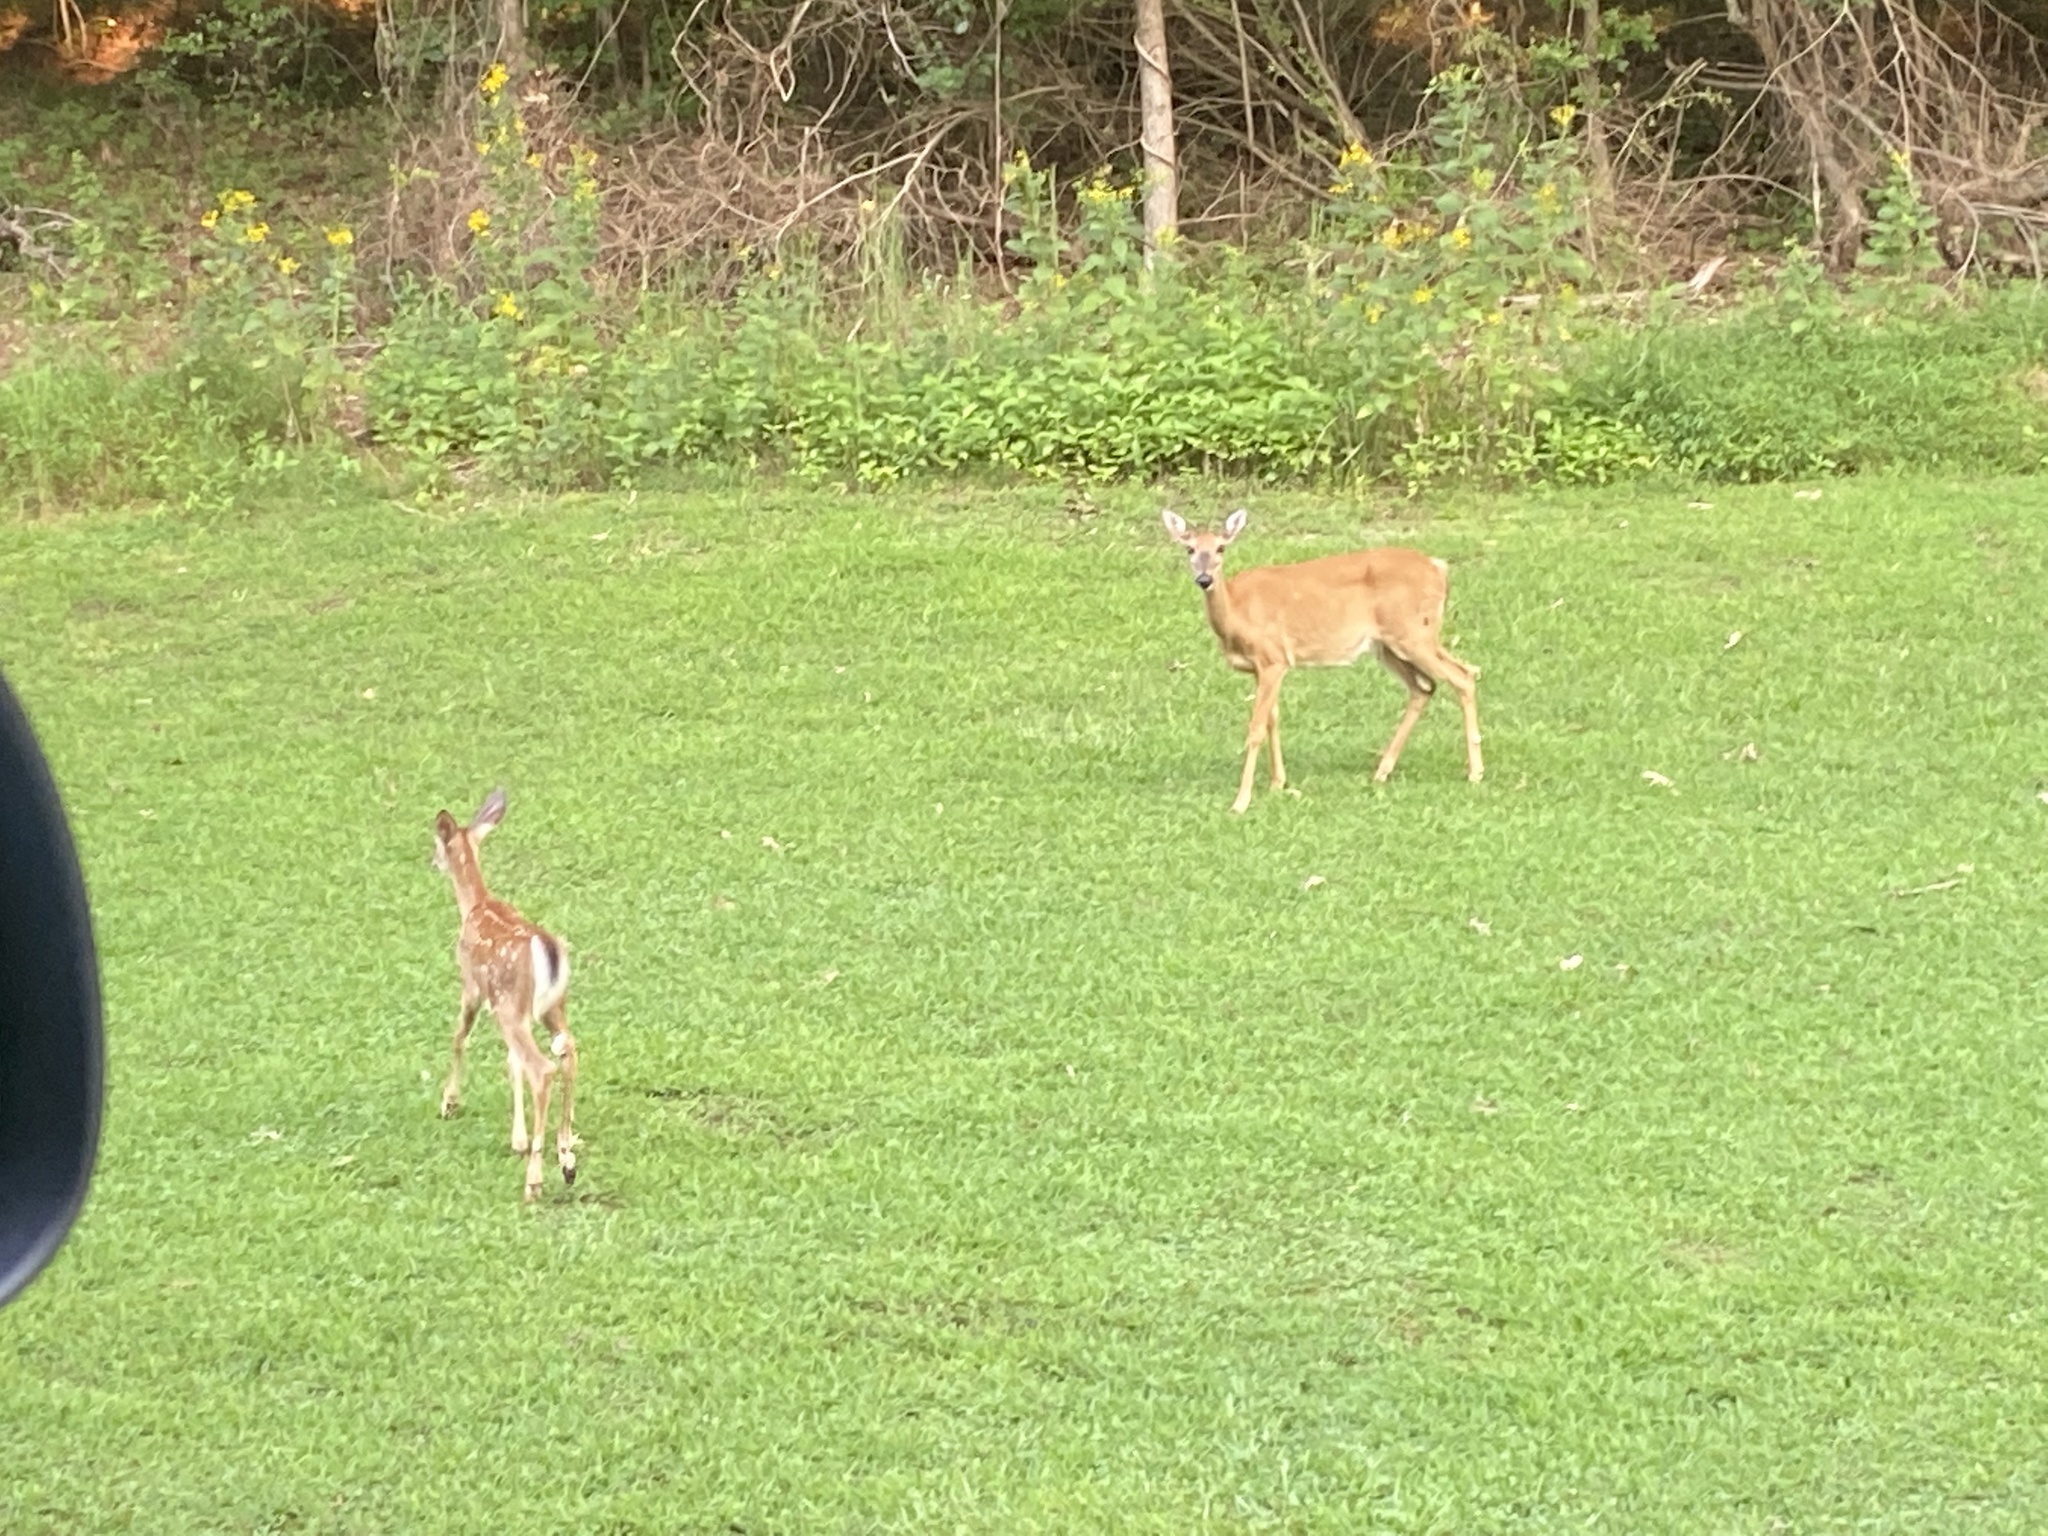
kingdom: Animalia
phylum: Chordata
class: Mammalia
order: Artiodactyla
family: Cervidae
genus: Odocoileus
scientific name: Odocoileus virginianus
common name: White-tailed deer
